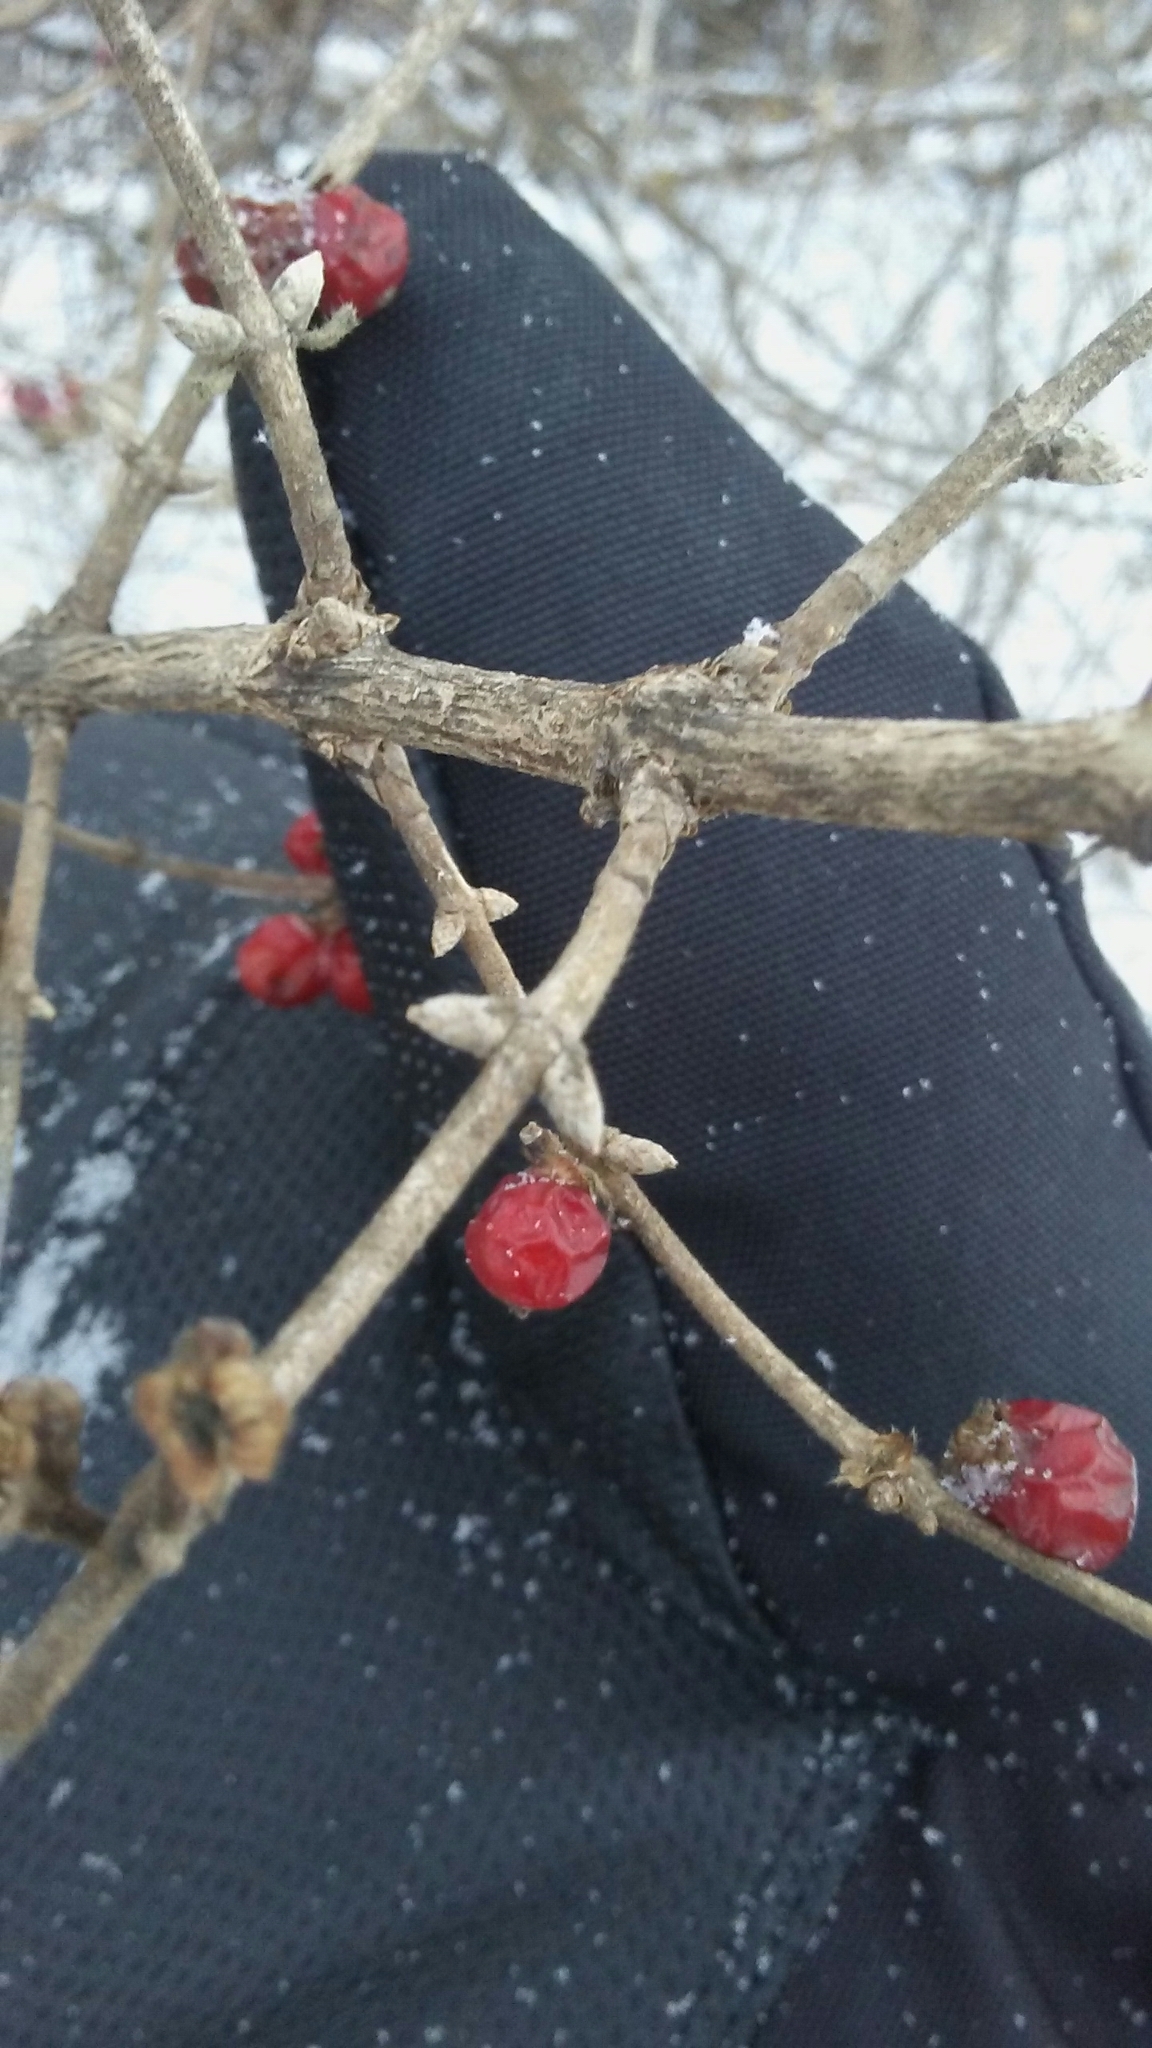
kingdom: Plantae
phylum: Tracheophyta
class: Magnoliopsida
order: Dipsacales
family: Caprifoliaceae
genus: Lonicera
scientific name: Lonicera maackii
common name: Amur honeysuckle
